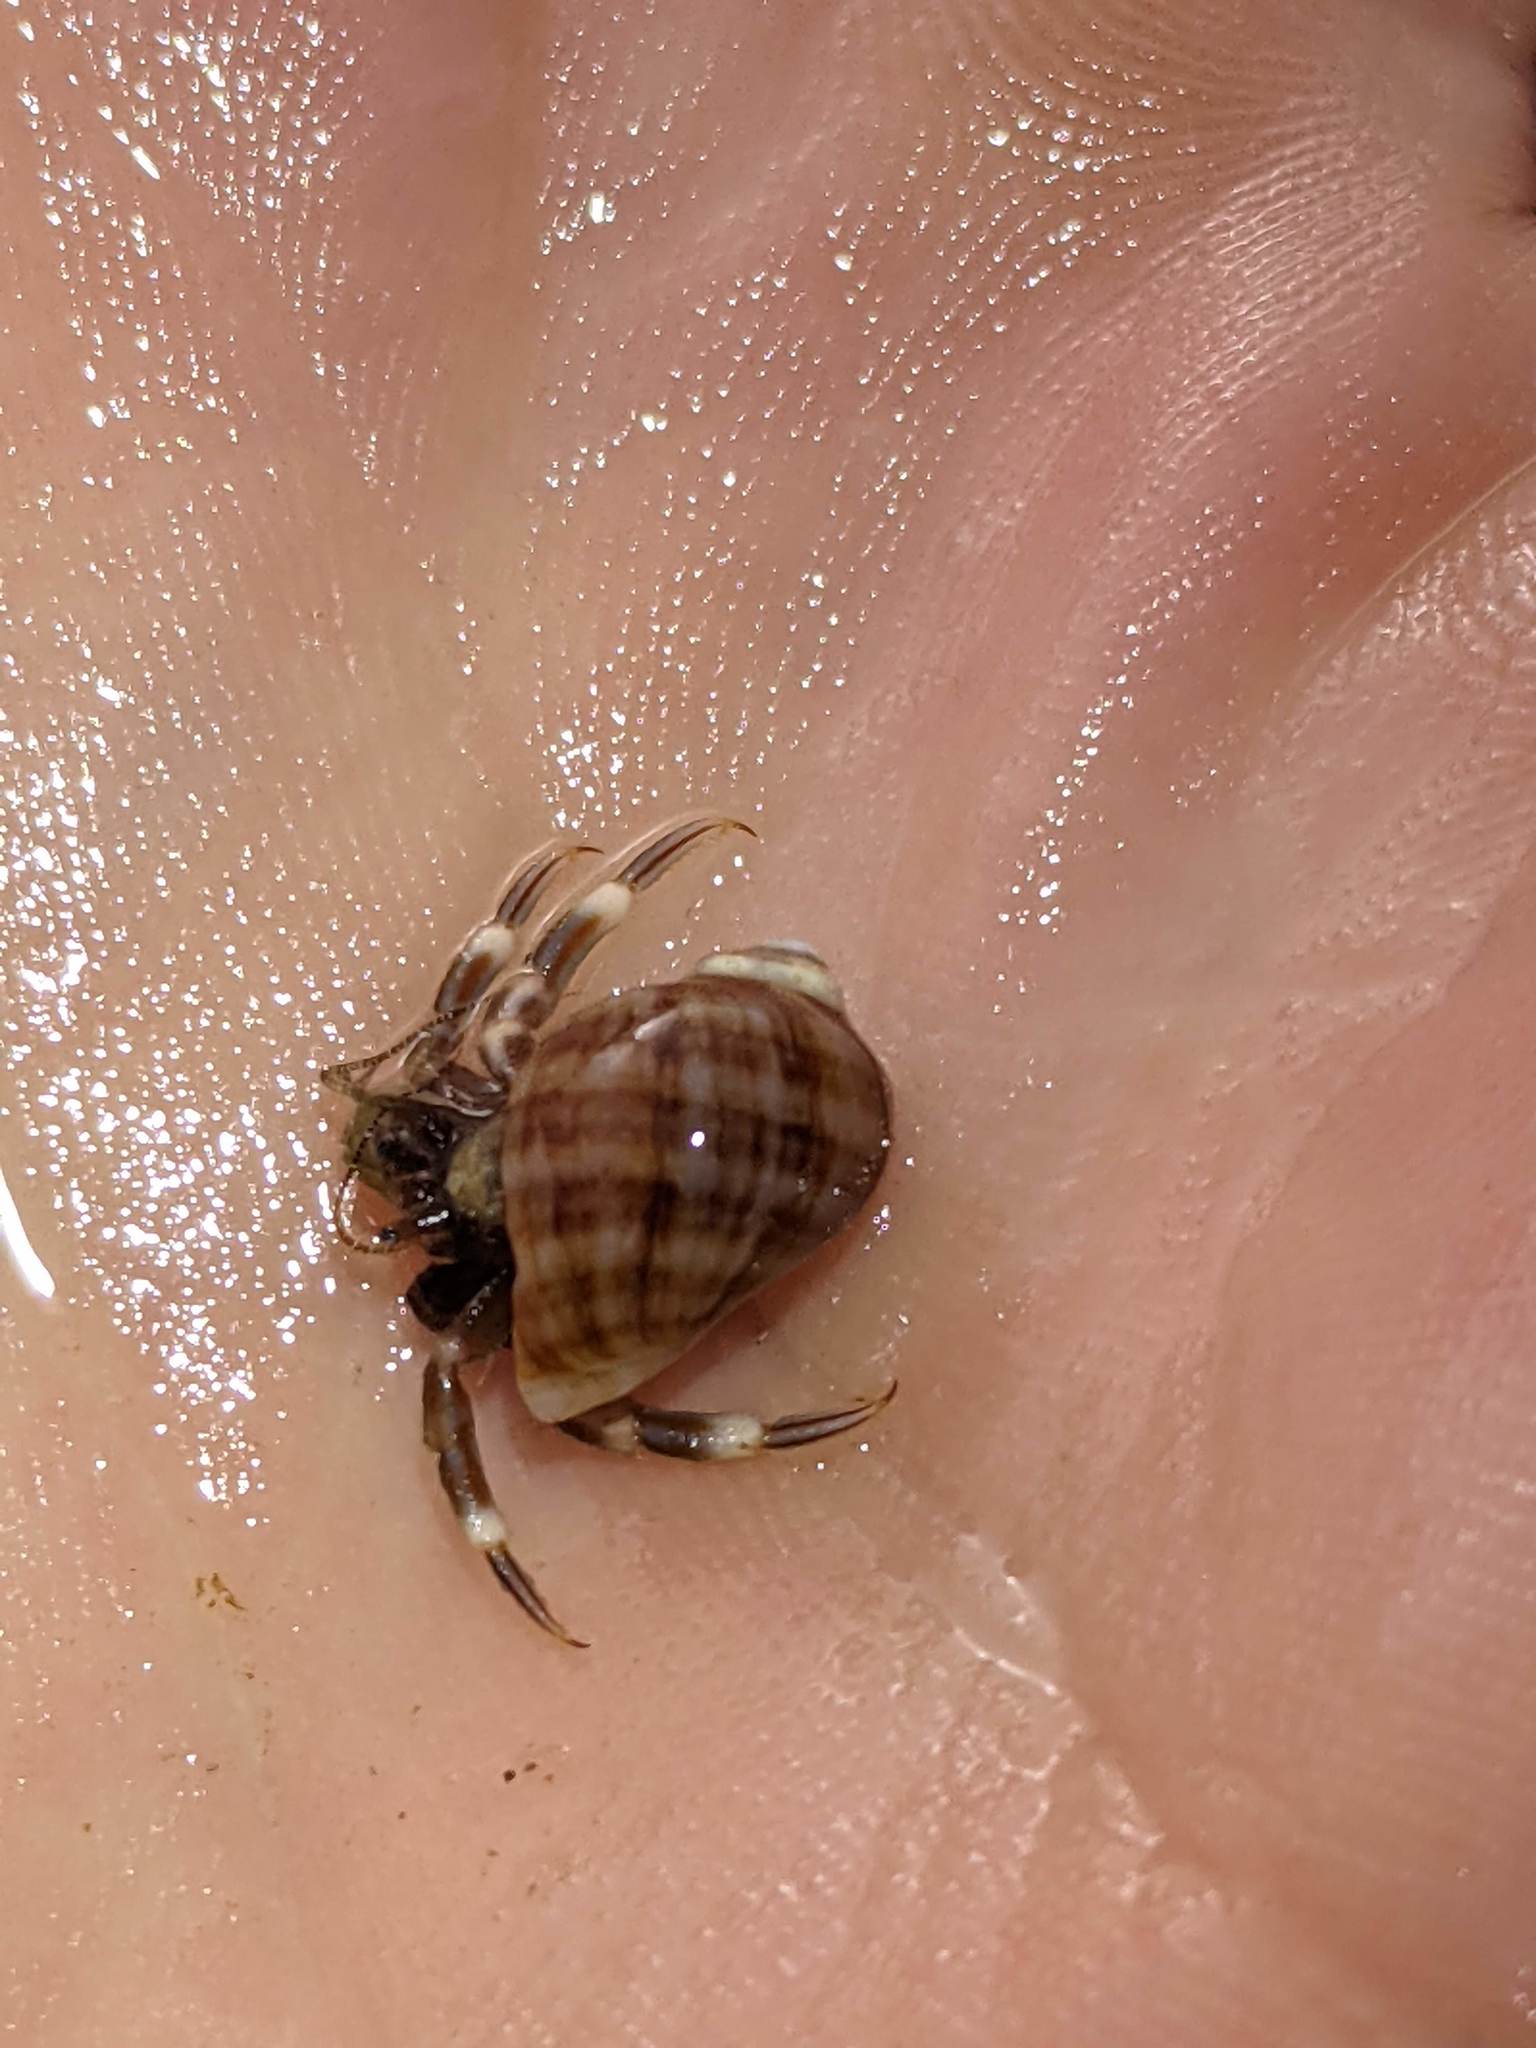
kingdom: Animalia
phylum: Mollusca
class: Gastropoda
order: Neogastropoda
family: Muricidae
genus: Nucella
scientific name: Nucella emarginata
